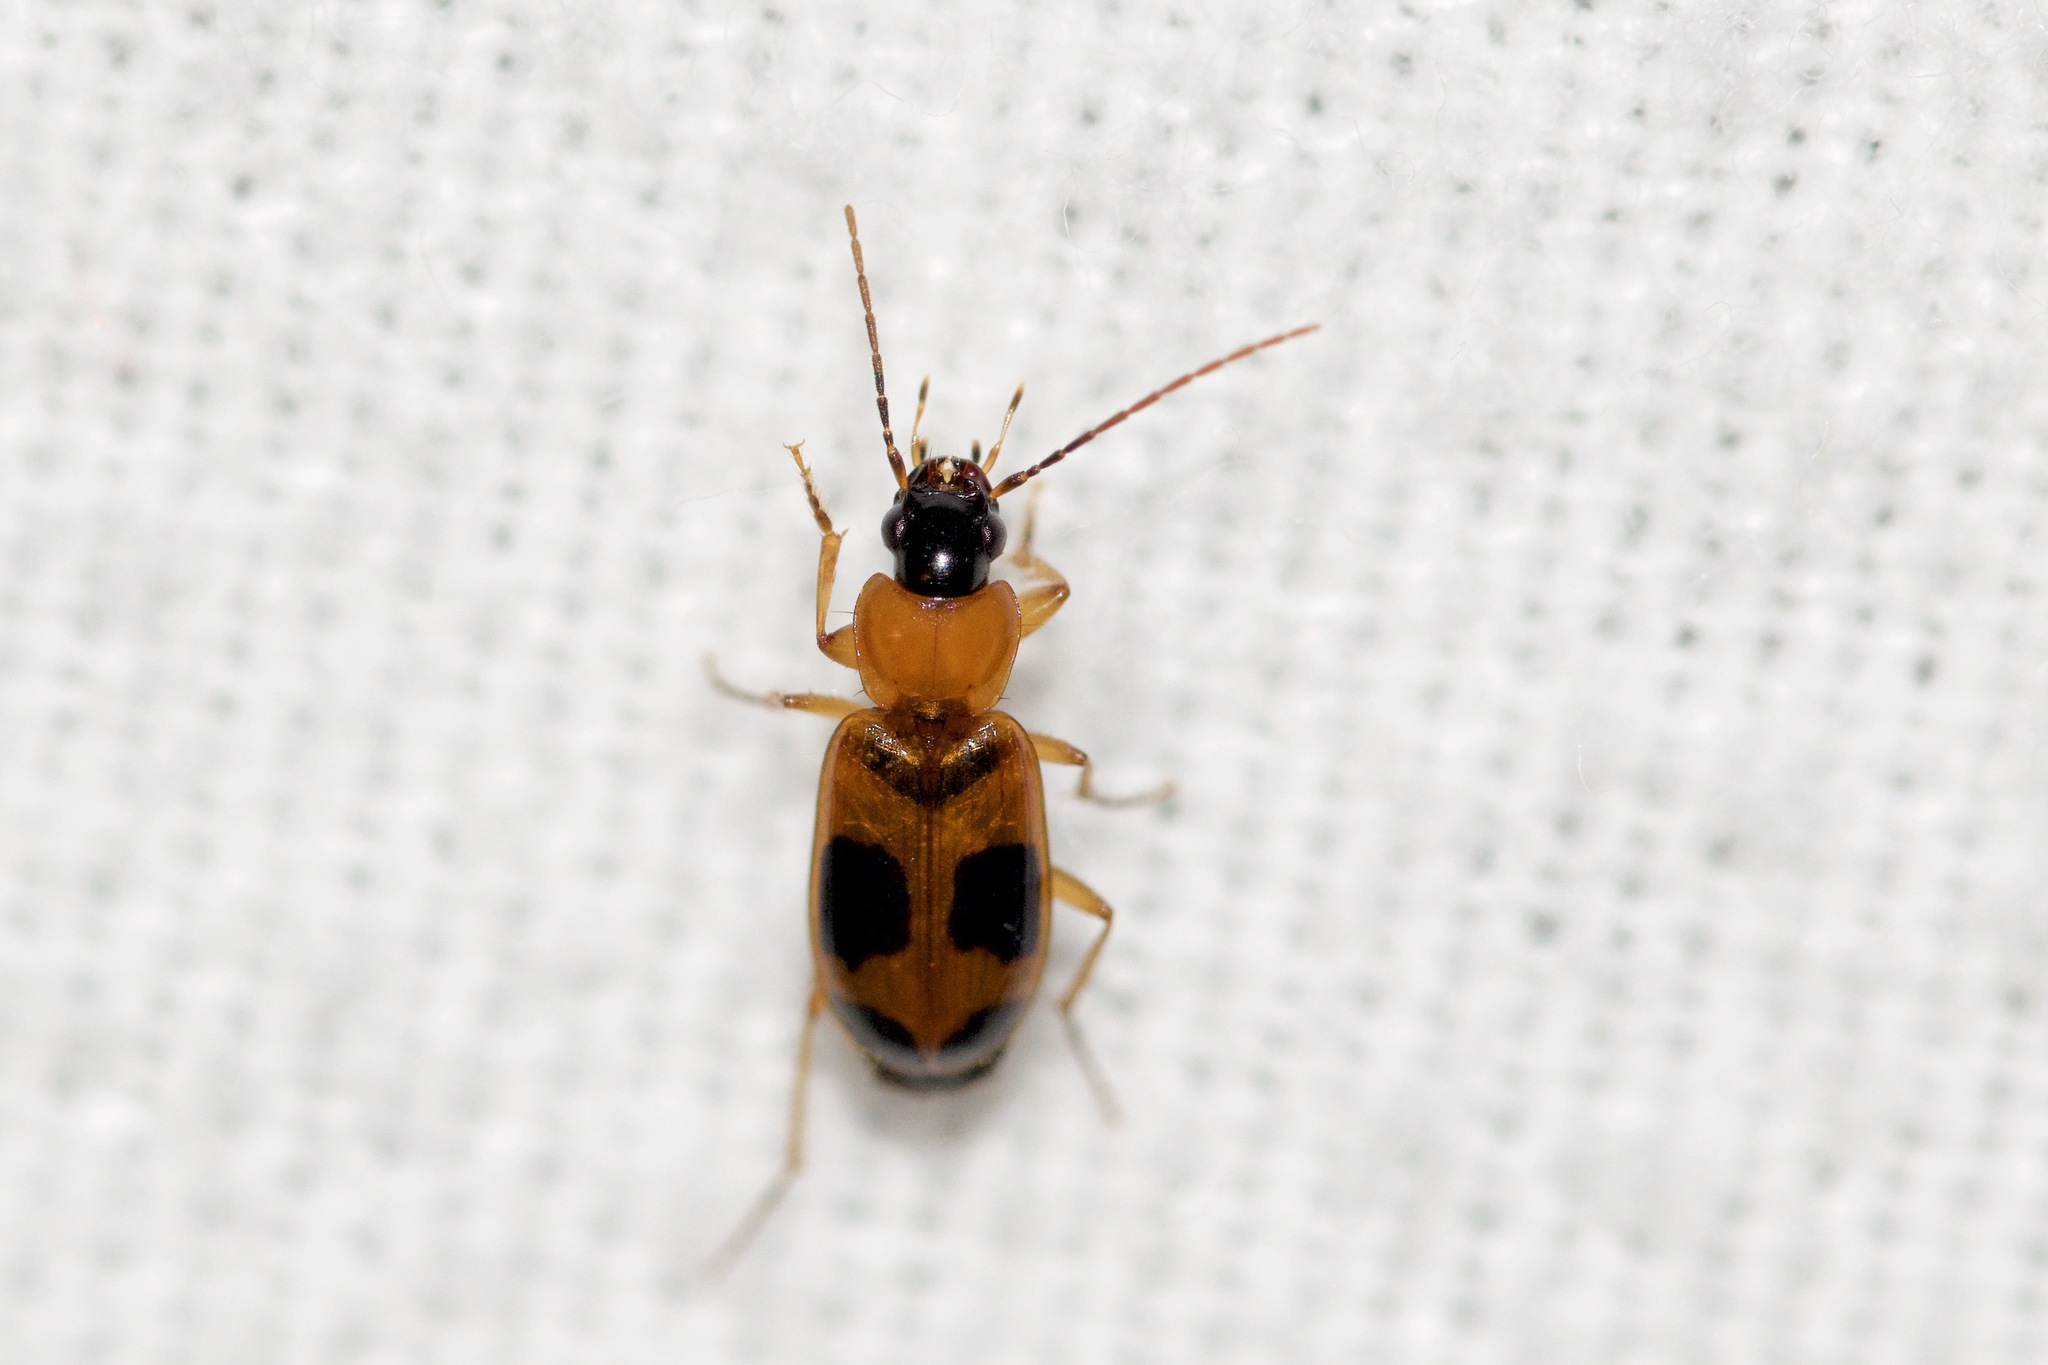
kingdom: Animalia
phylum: Arthropoda
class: Insecta
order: Coleoptera
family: Carabidae
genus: Badister
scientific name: Badister neopulchellus
